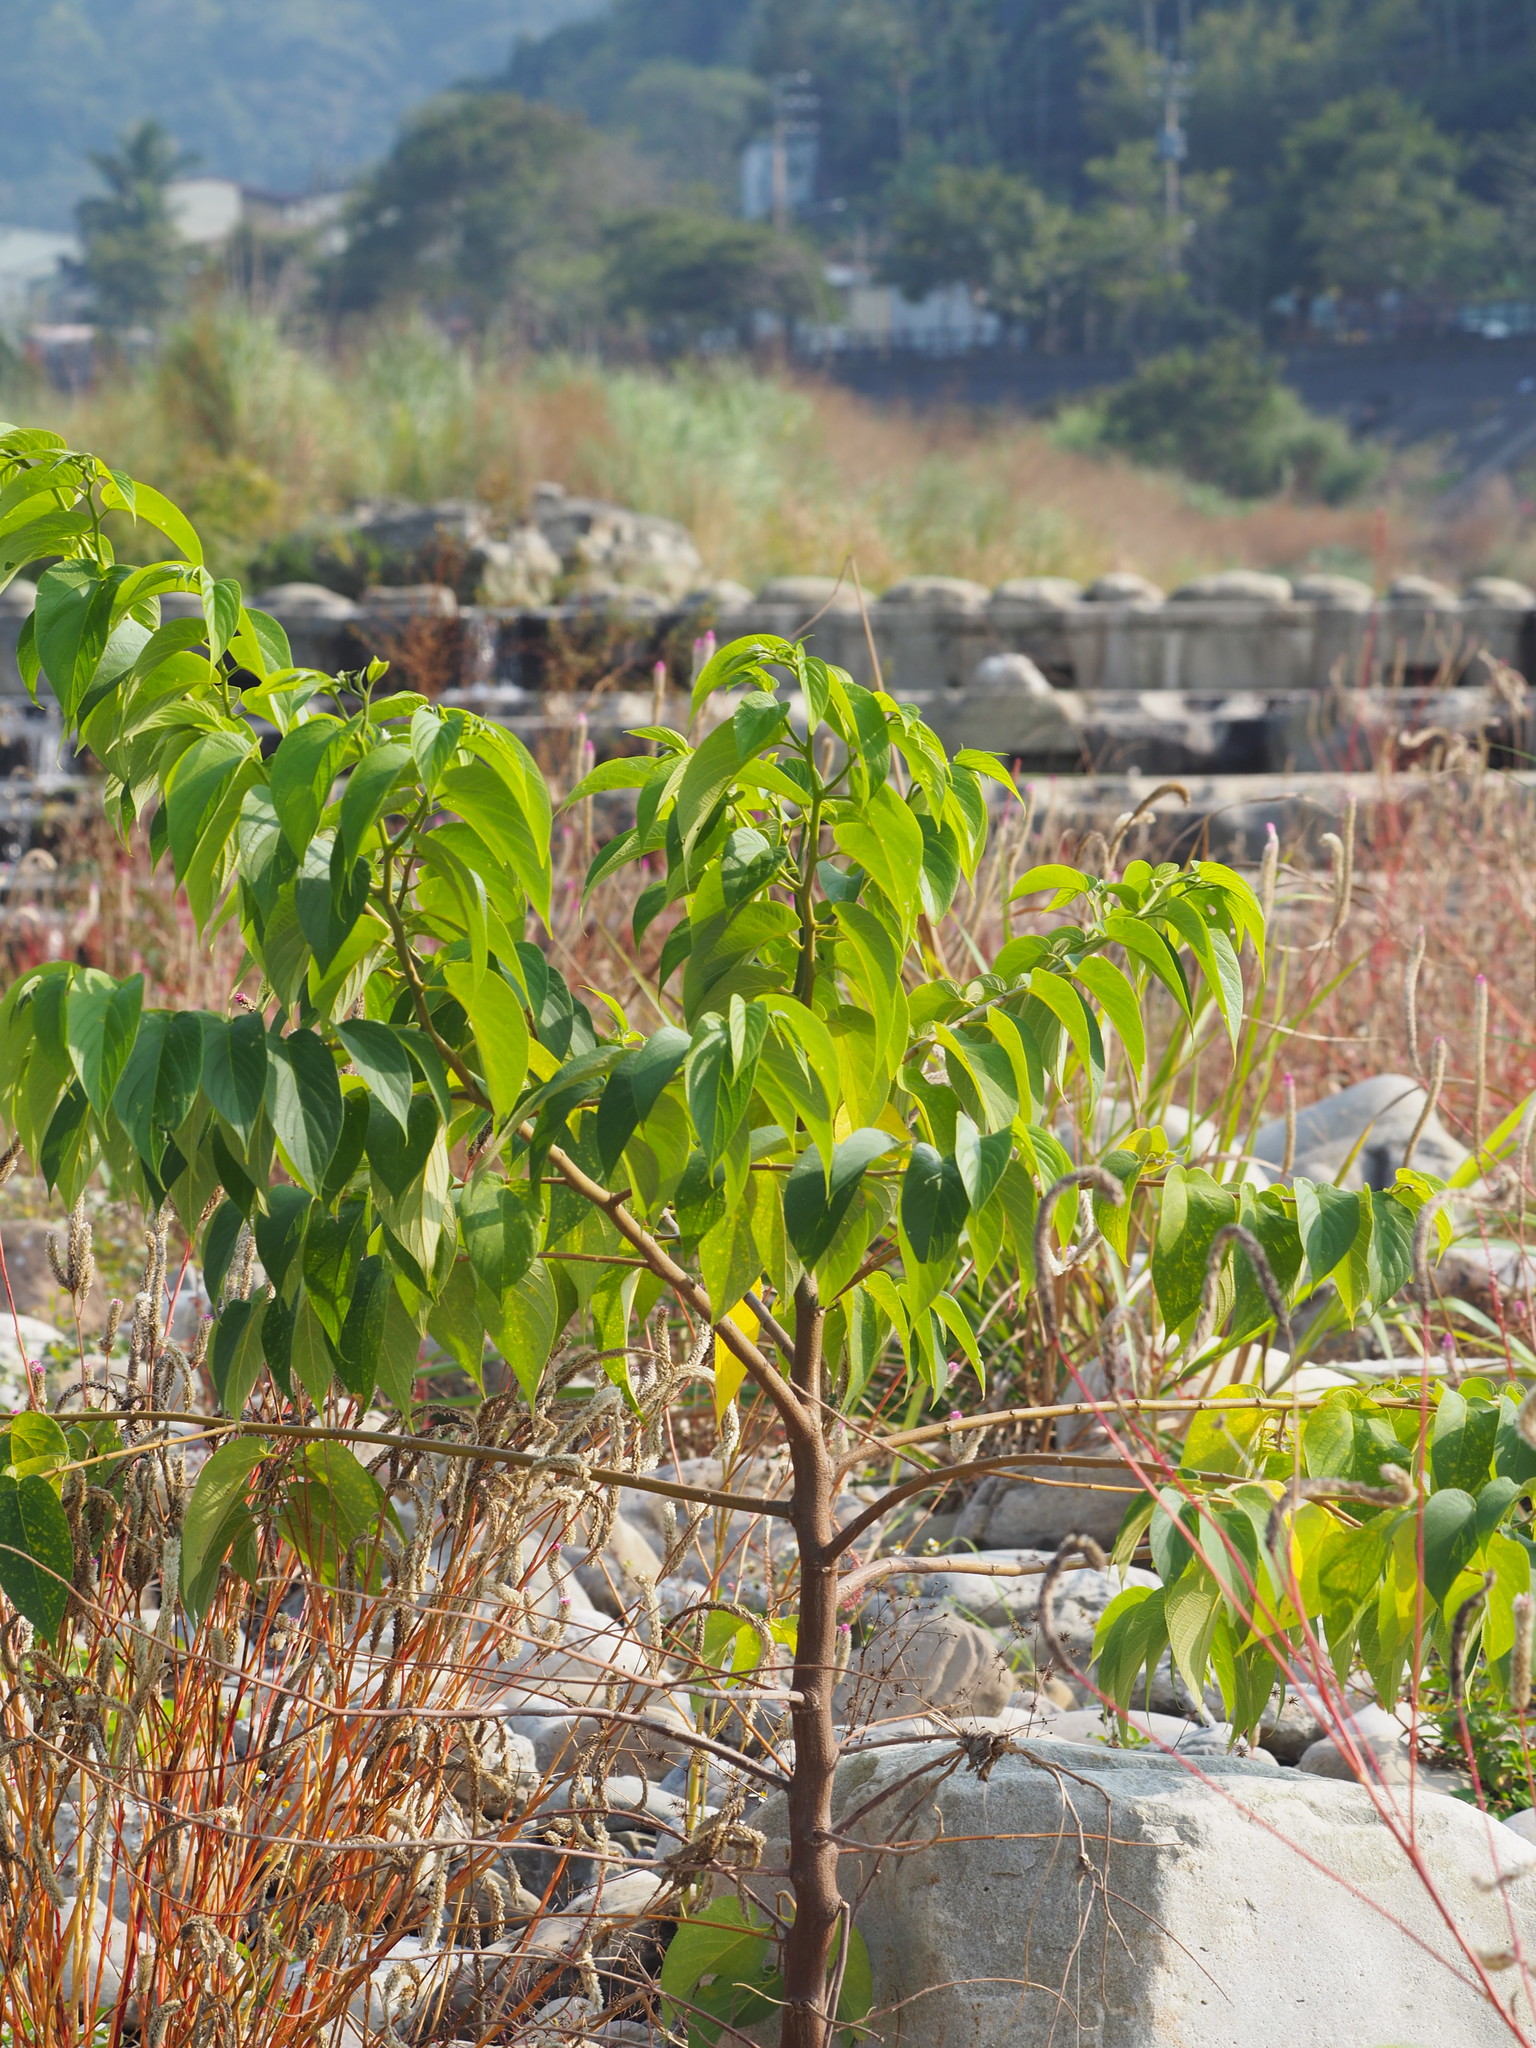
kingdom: Plantae
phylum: Tracheophyta
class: Magnoliopsida
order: Rosales
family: Cannabaceae
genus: Trema
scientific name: Trema orientale
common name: Indian charcoal tree
